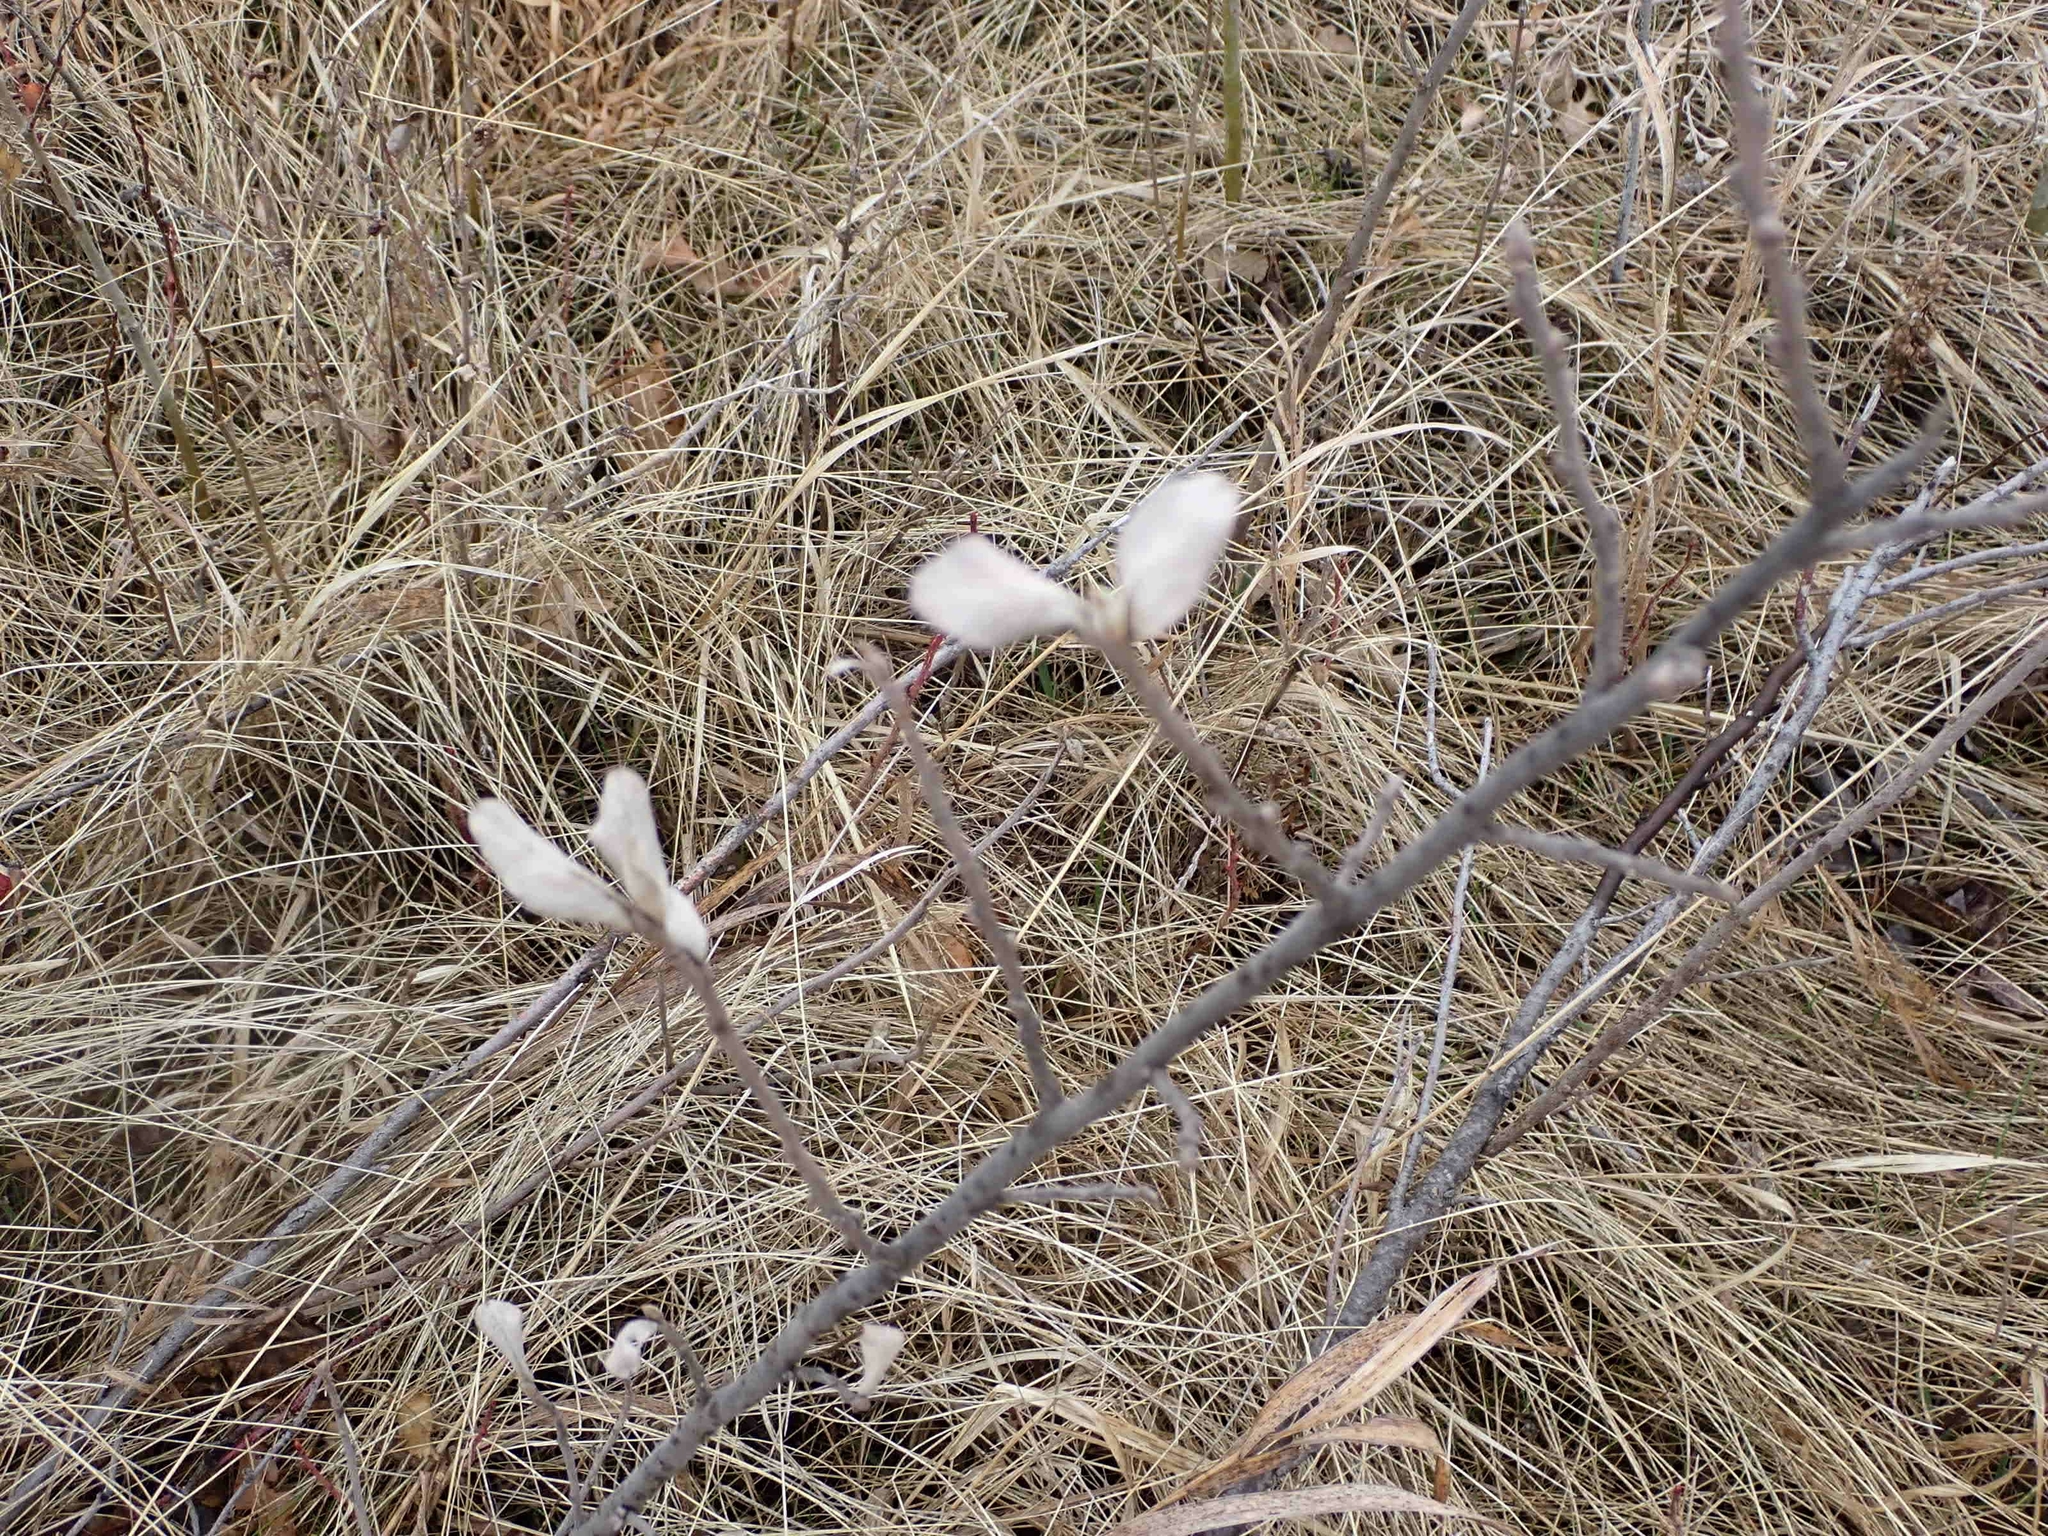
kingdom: Plantae
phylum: Tracheophyta
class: Magnoliopsida
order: Rosales
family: Elaeagnaceae
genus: Elaeagnus
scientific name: Elaeagnus commutata
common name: Silverberry
